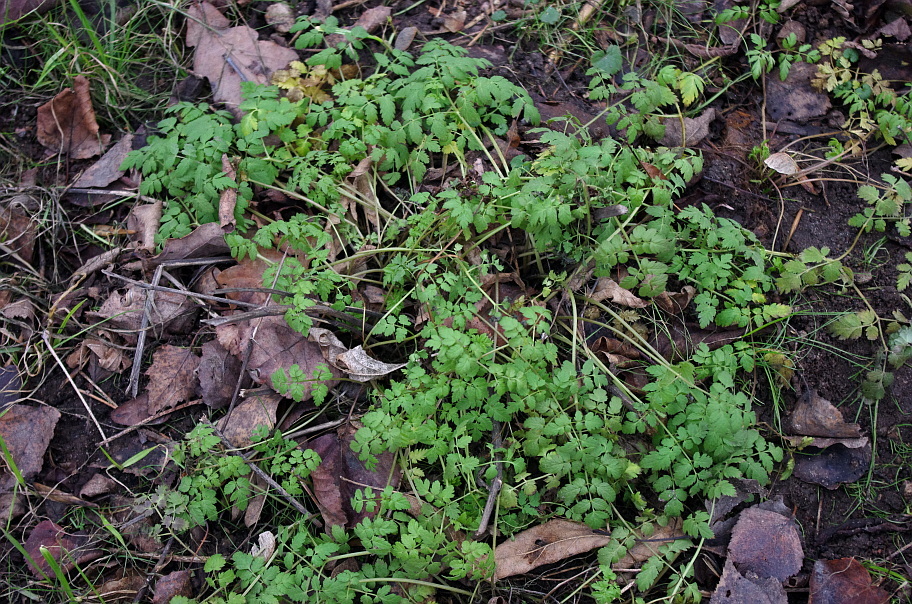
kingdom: Plantae
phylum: Tracheophyta
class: Magnoliopsida
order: Apiales
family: Apiaceae
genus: Chaerophyllum
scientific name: Chaerophyllum aureum
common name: Golden chervil
